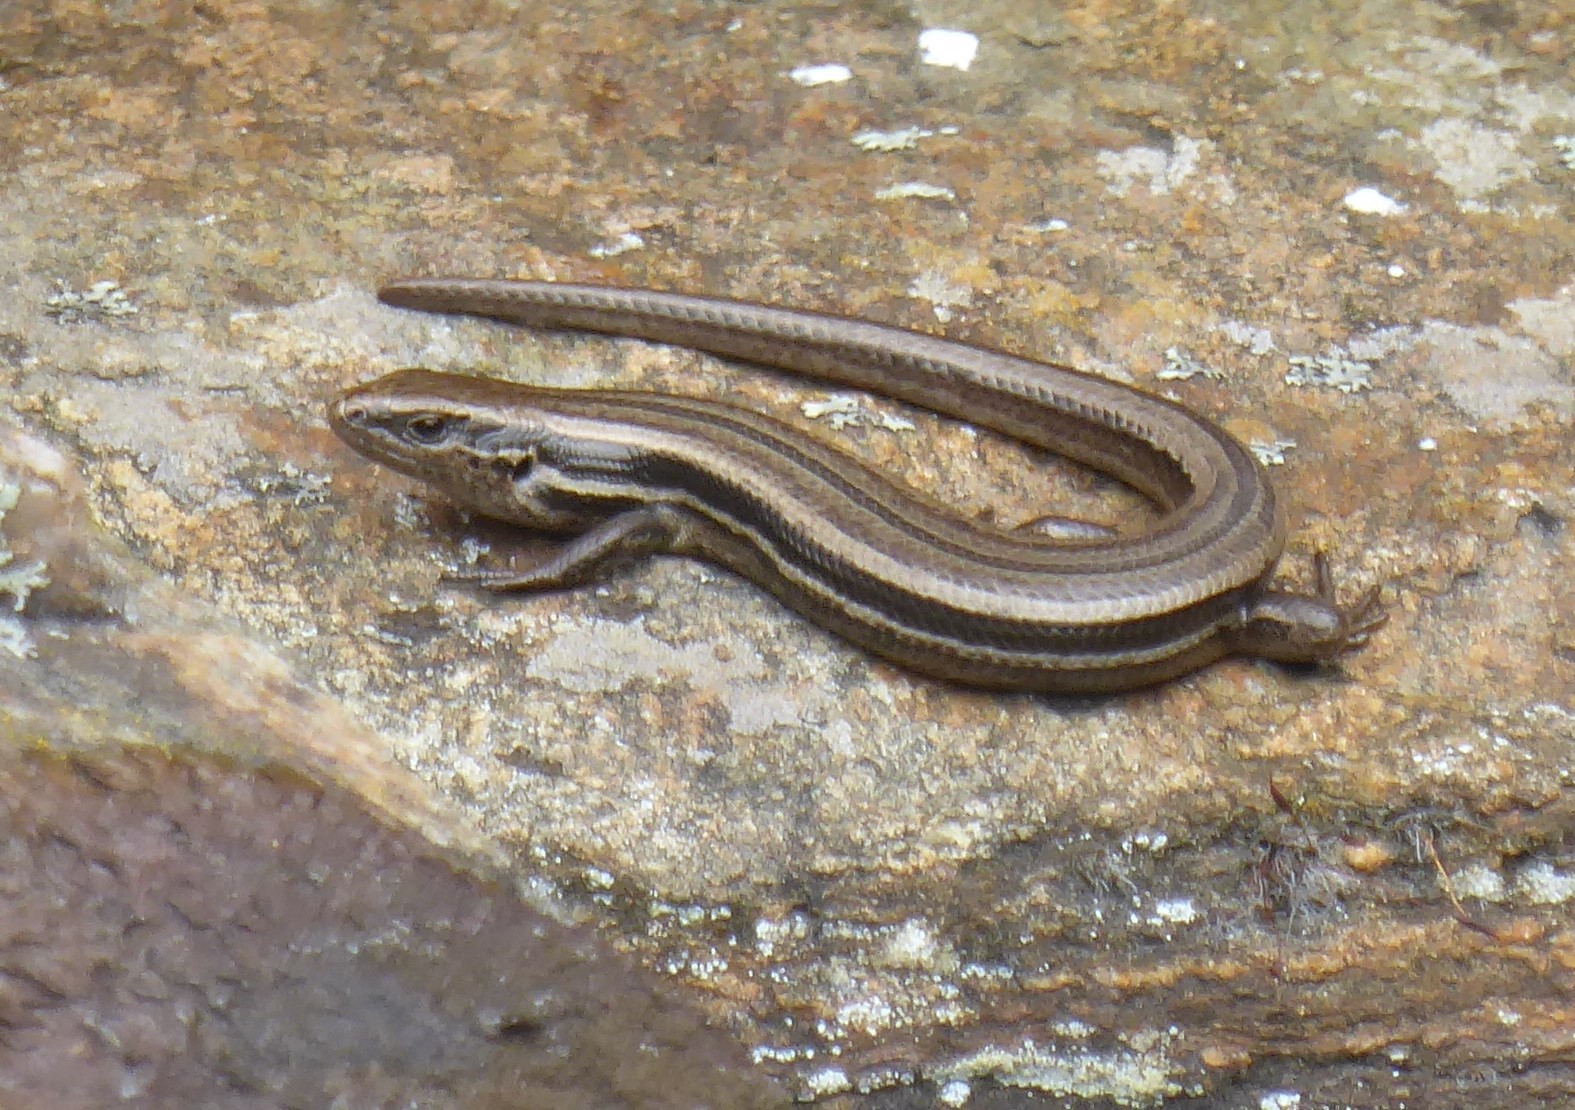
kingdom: Animalia
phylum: Chordata
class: Squamata
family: Scincidae
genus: Oligosoma
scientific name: Oligosoma polychroma
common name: Common new zealand skink
